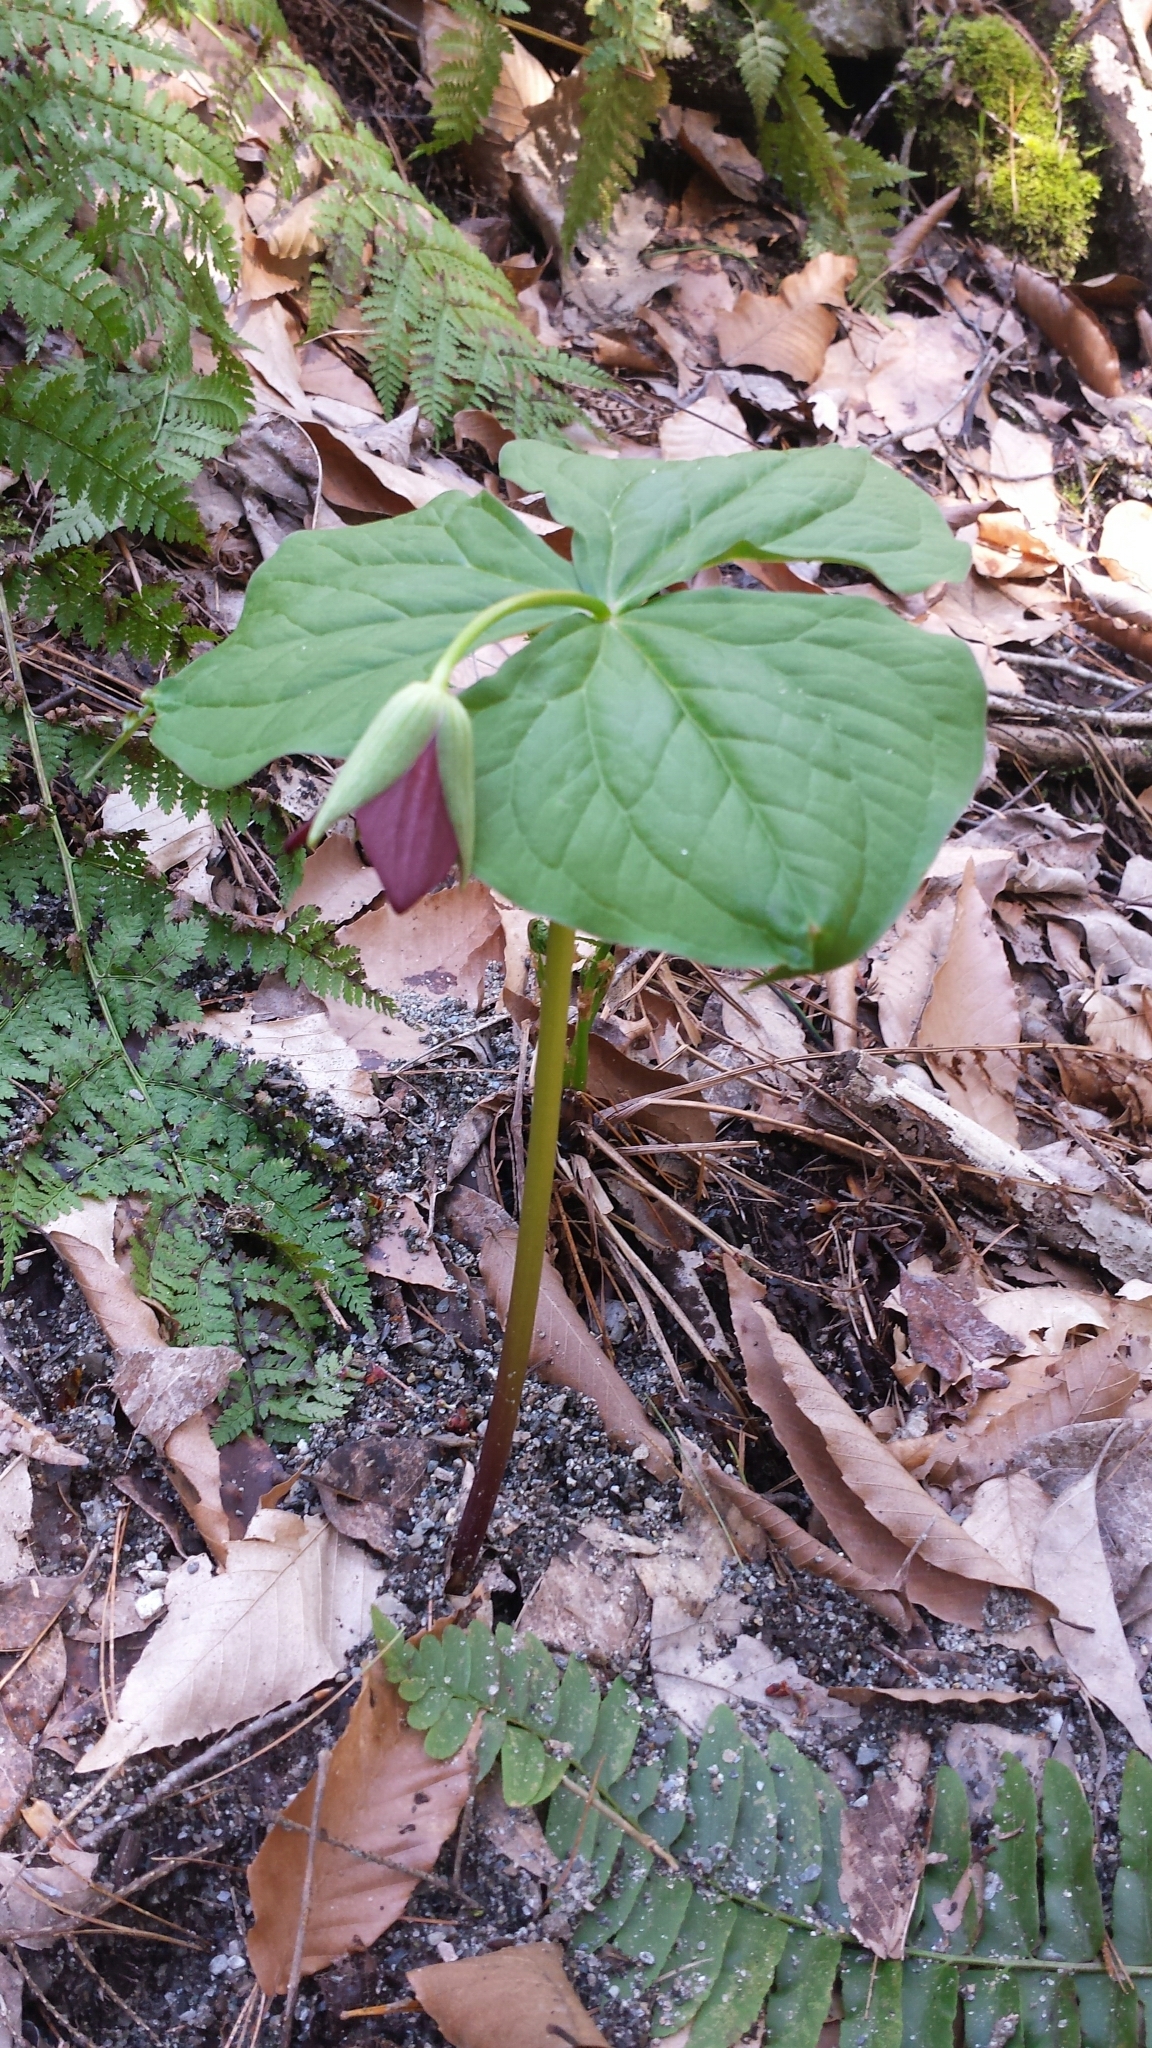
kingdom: Plantae
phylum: Tracheophyta
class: Liliopsida
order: Liliales
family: Melanthiaceae
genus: Trillium
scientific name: Trillium erectum
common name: Purple trillium
